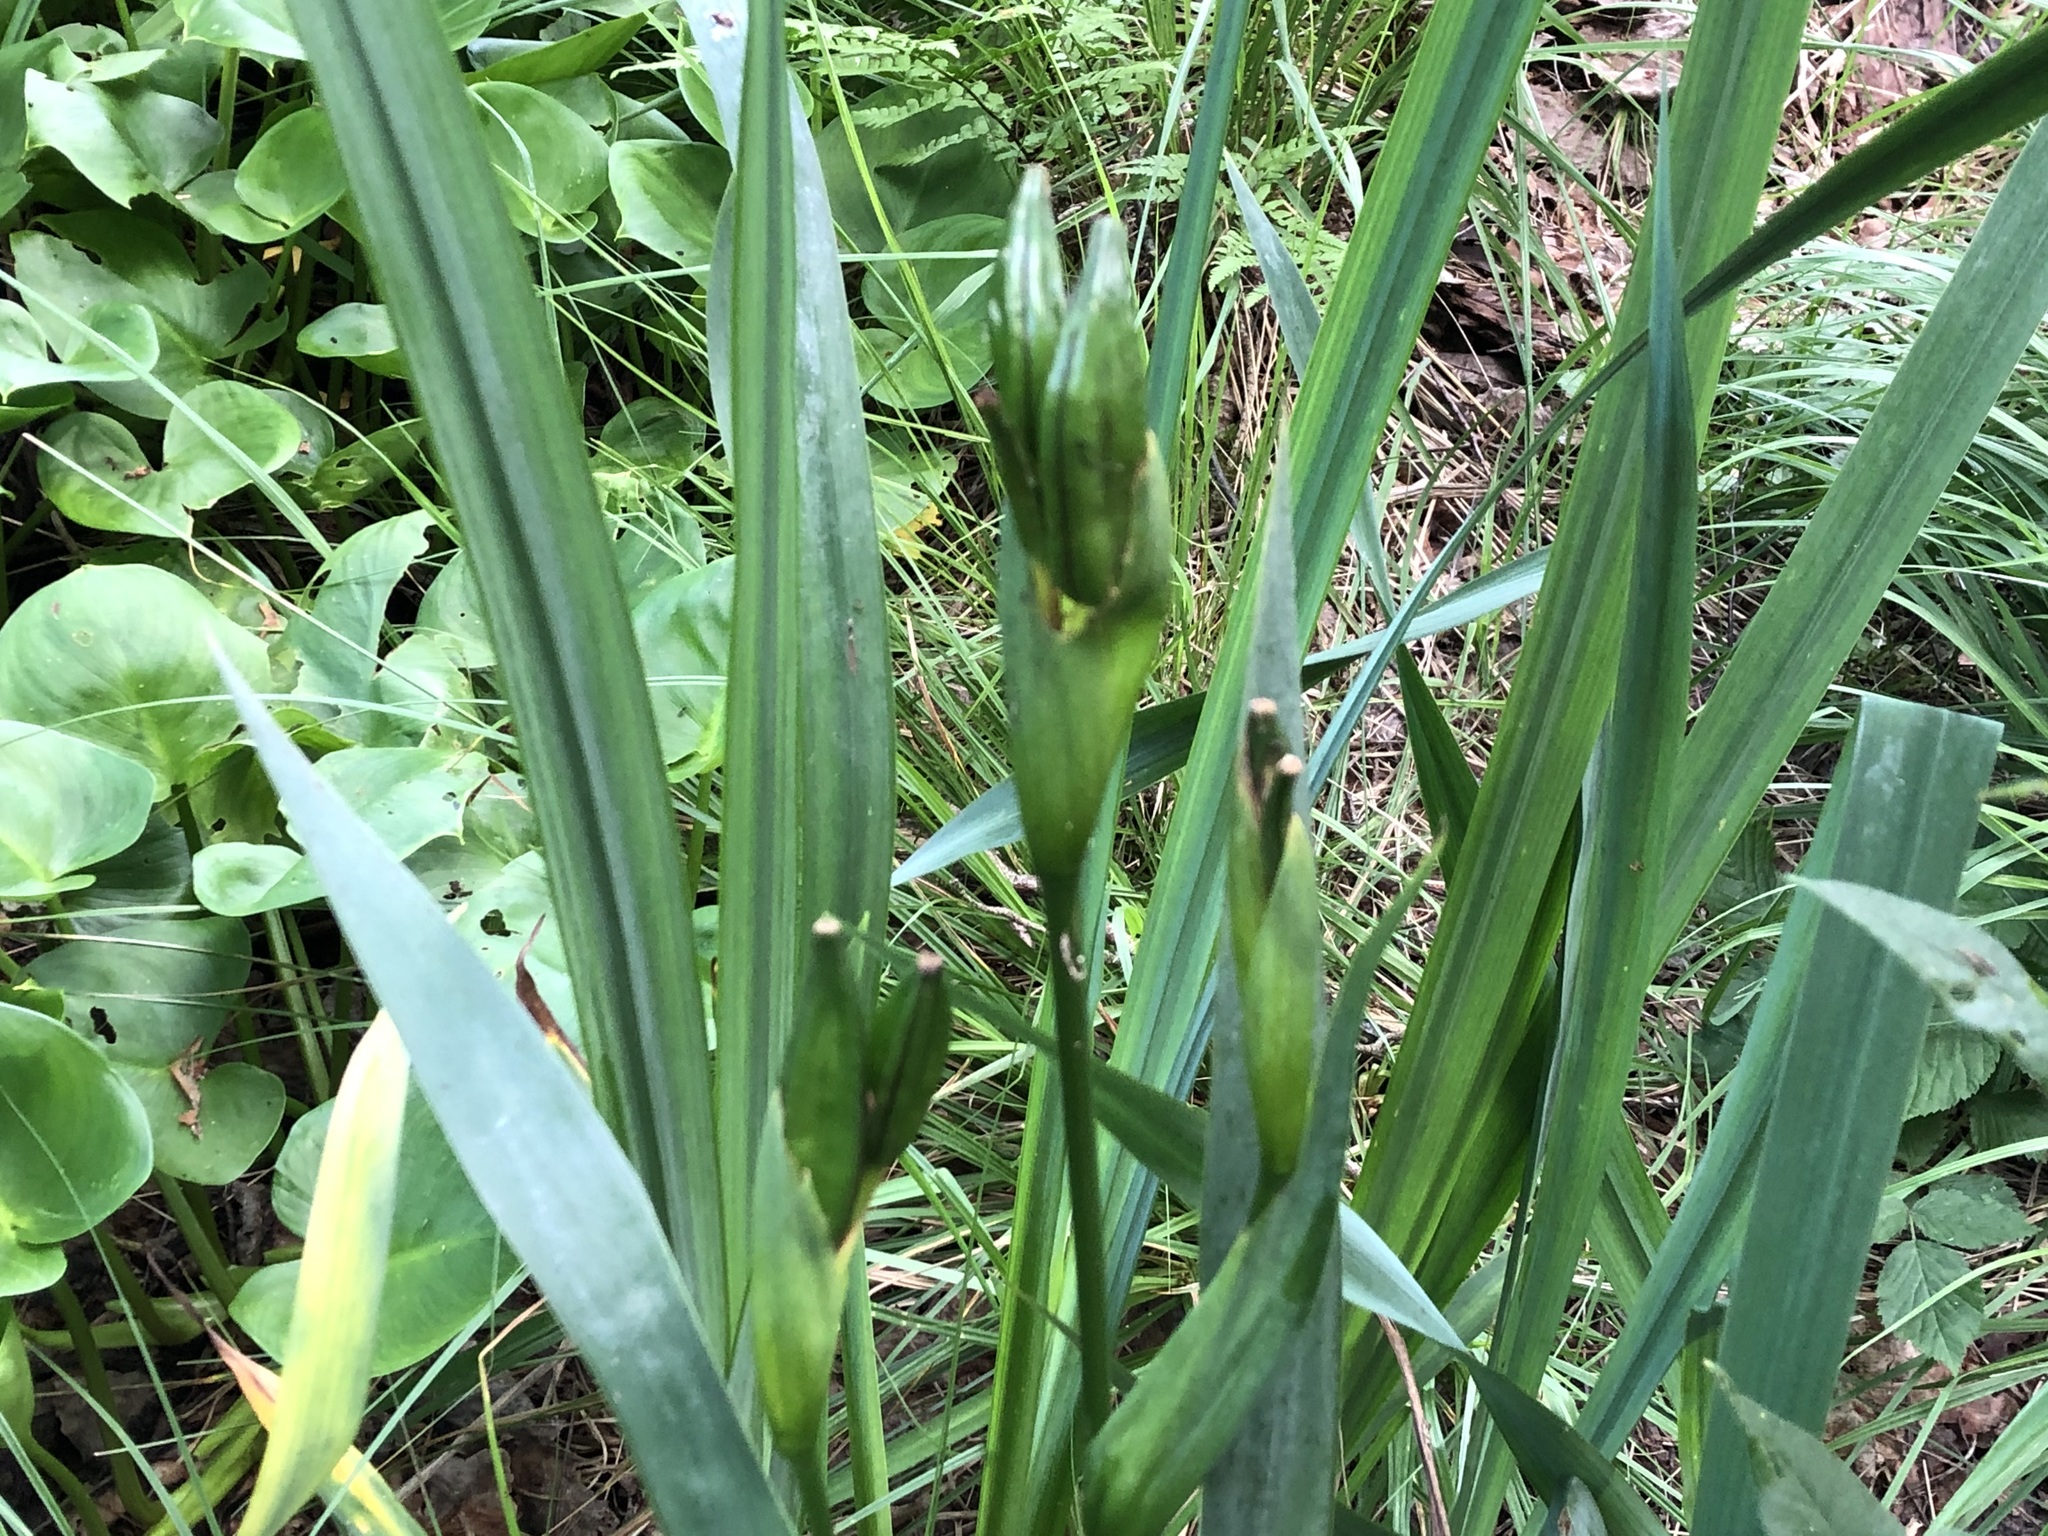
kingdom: Plantae
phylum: Tracheophyta
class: Liliopsida
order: Asparagales
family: Iridaceae
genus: Iris
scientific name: Iris pseudacorus
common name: Yellow flag
